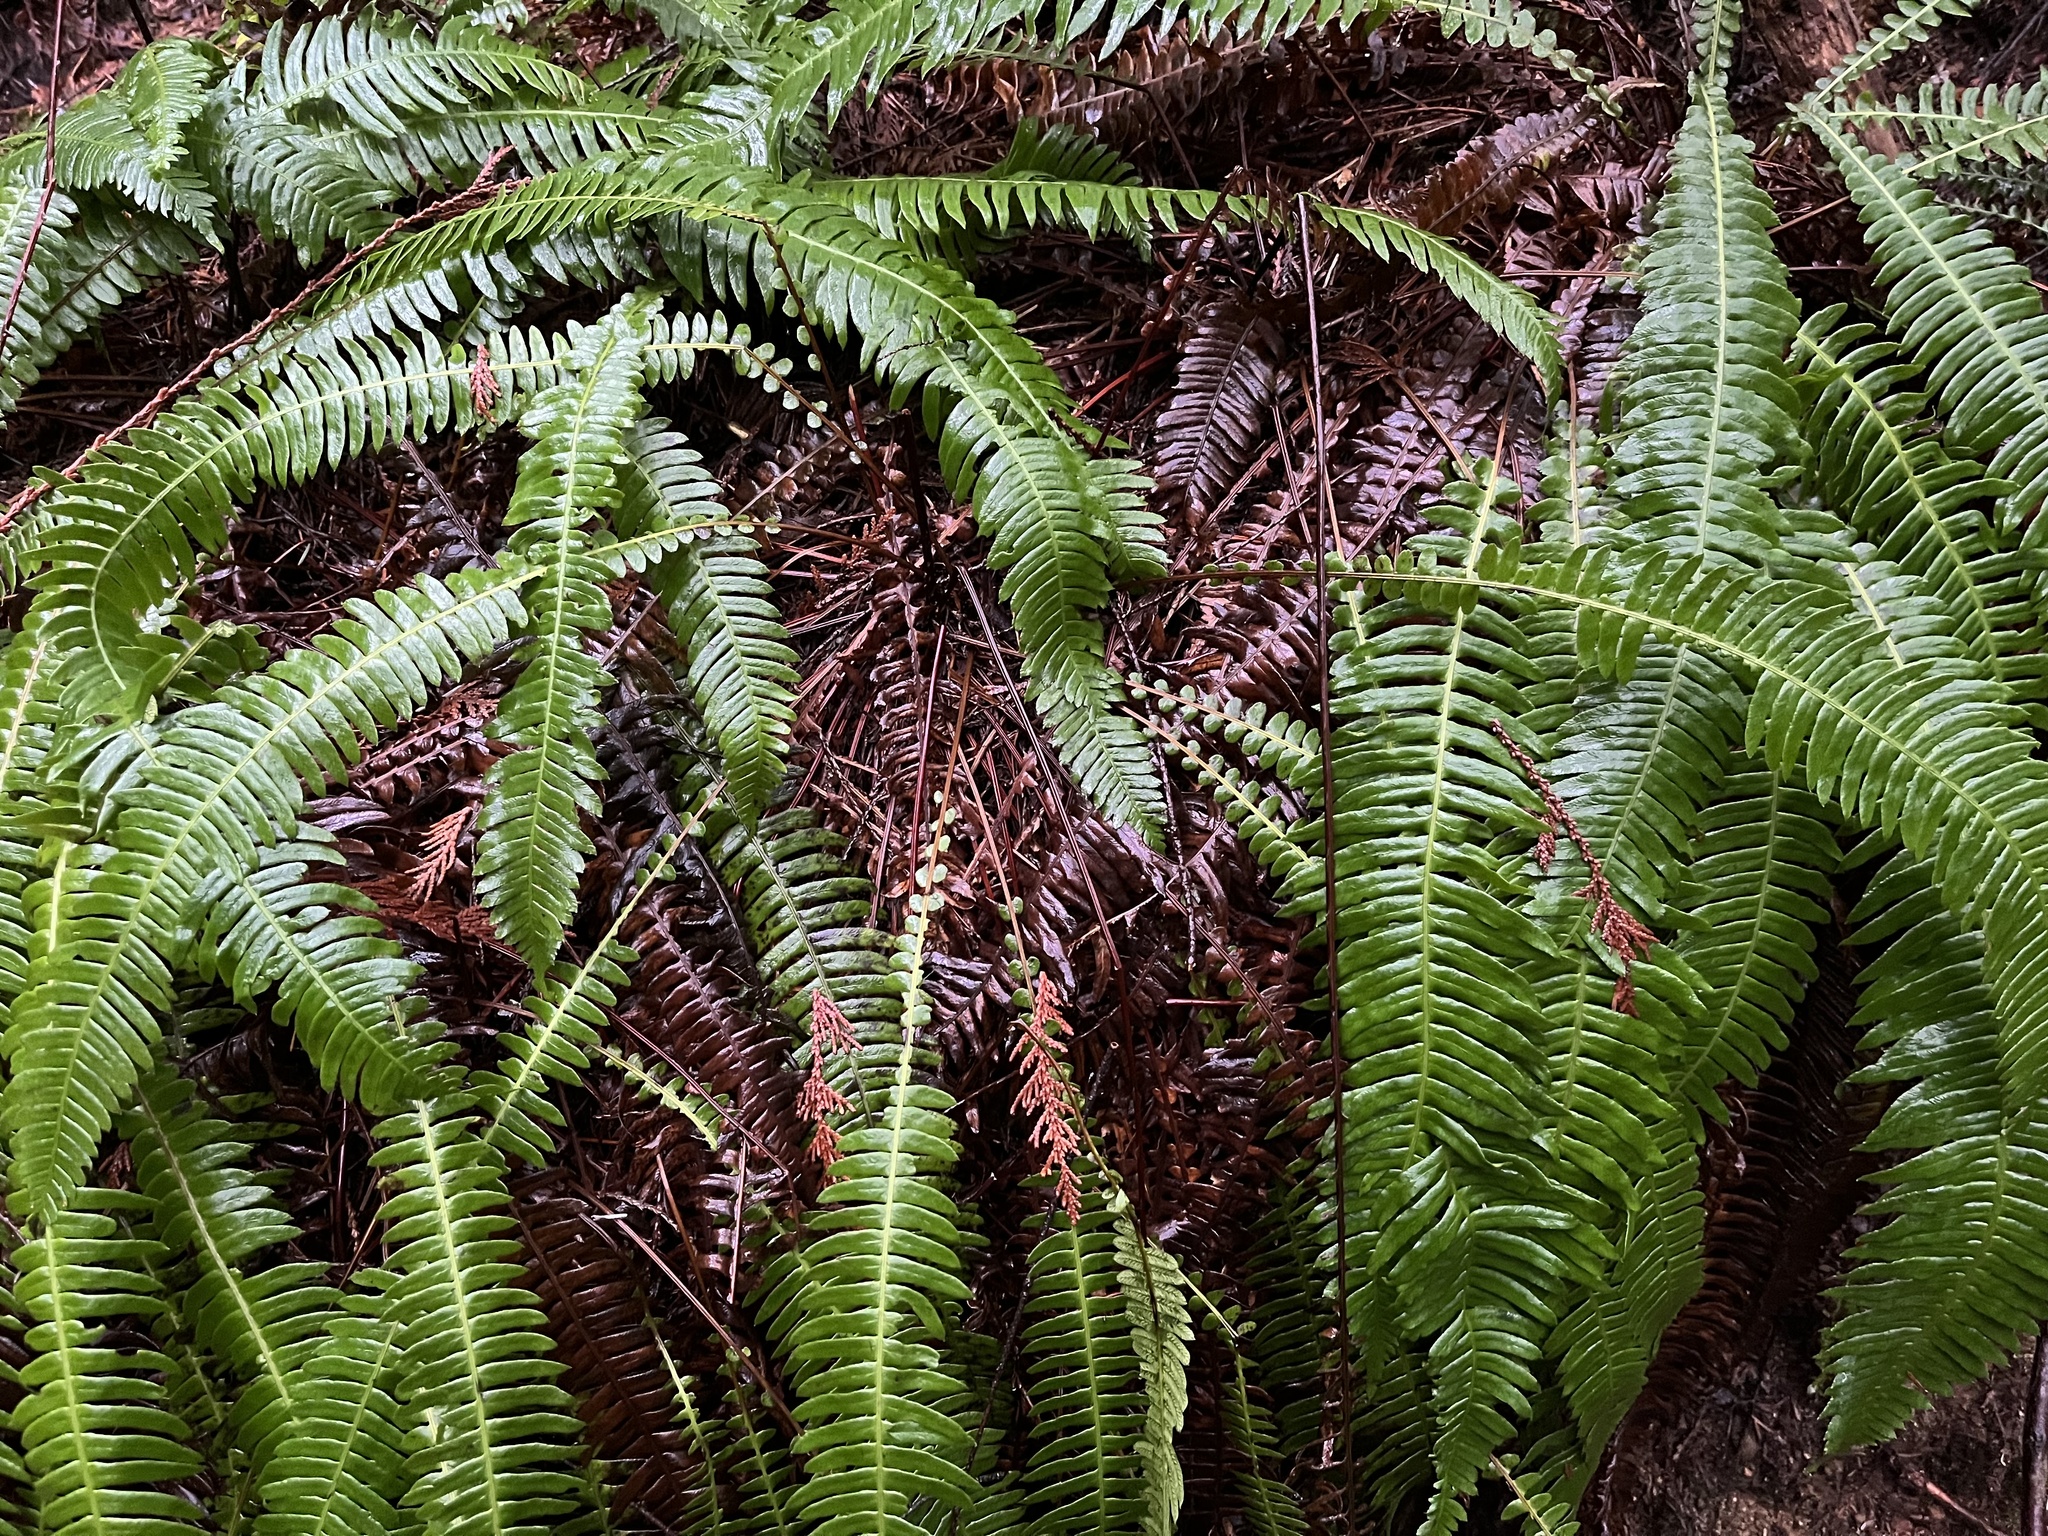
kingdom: Plantae
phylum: Tracheophyta
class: Polypodiopsida
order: Polypodiales
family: Blechnaceae
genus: Struthiopteris
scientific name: Struthiopteris spicant
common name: Deer fern
